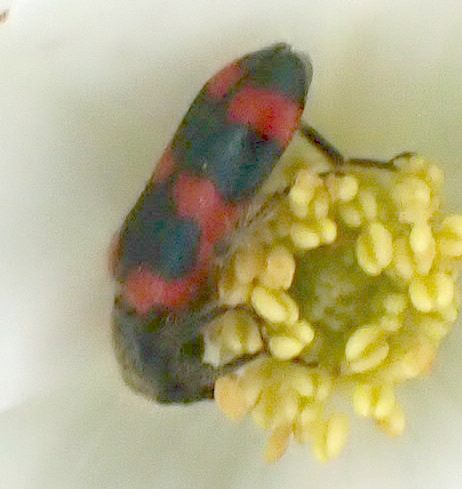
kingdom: Animalia
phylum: Arthropoda
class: Insecta
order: Coleoptera
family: Cleridae
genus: Trichodes
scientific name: Trichodes nutalli
